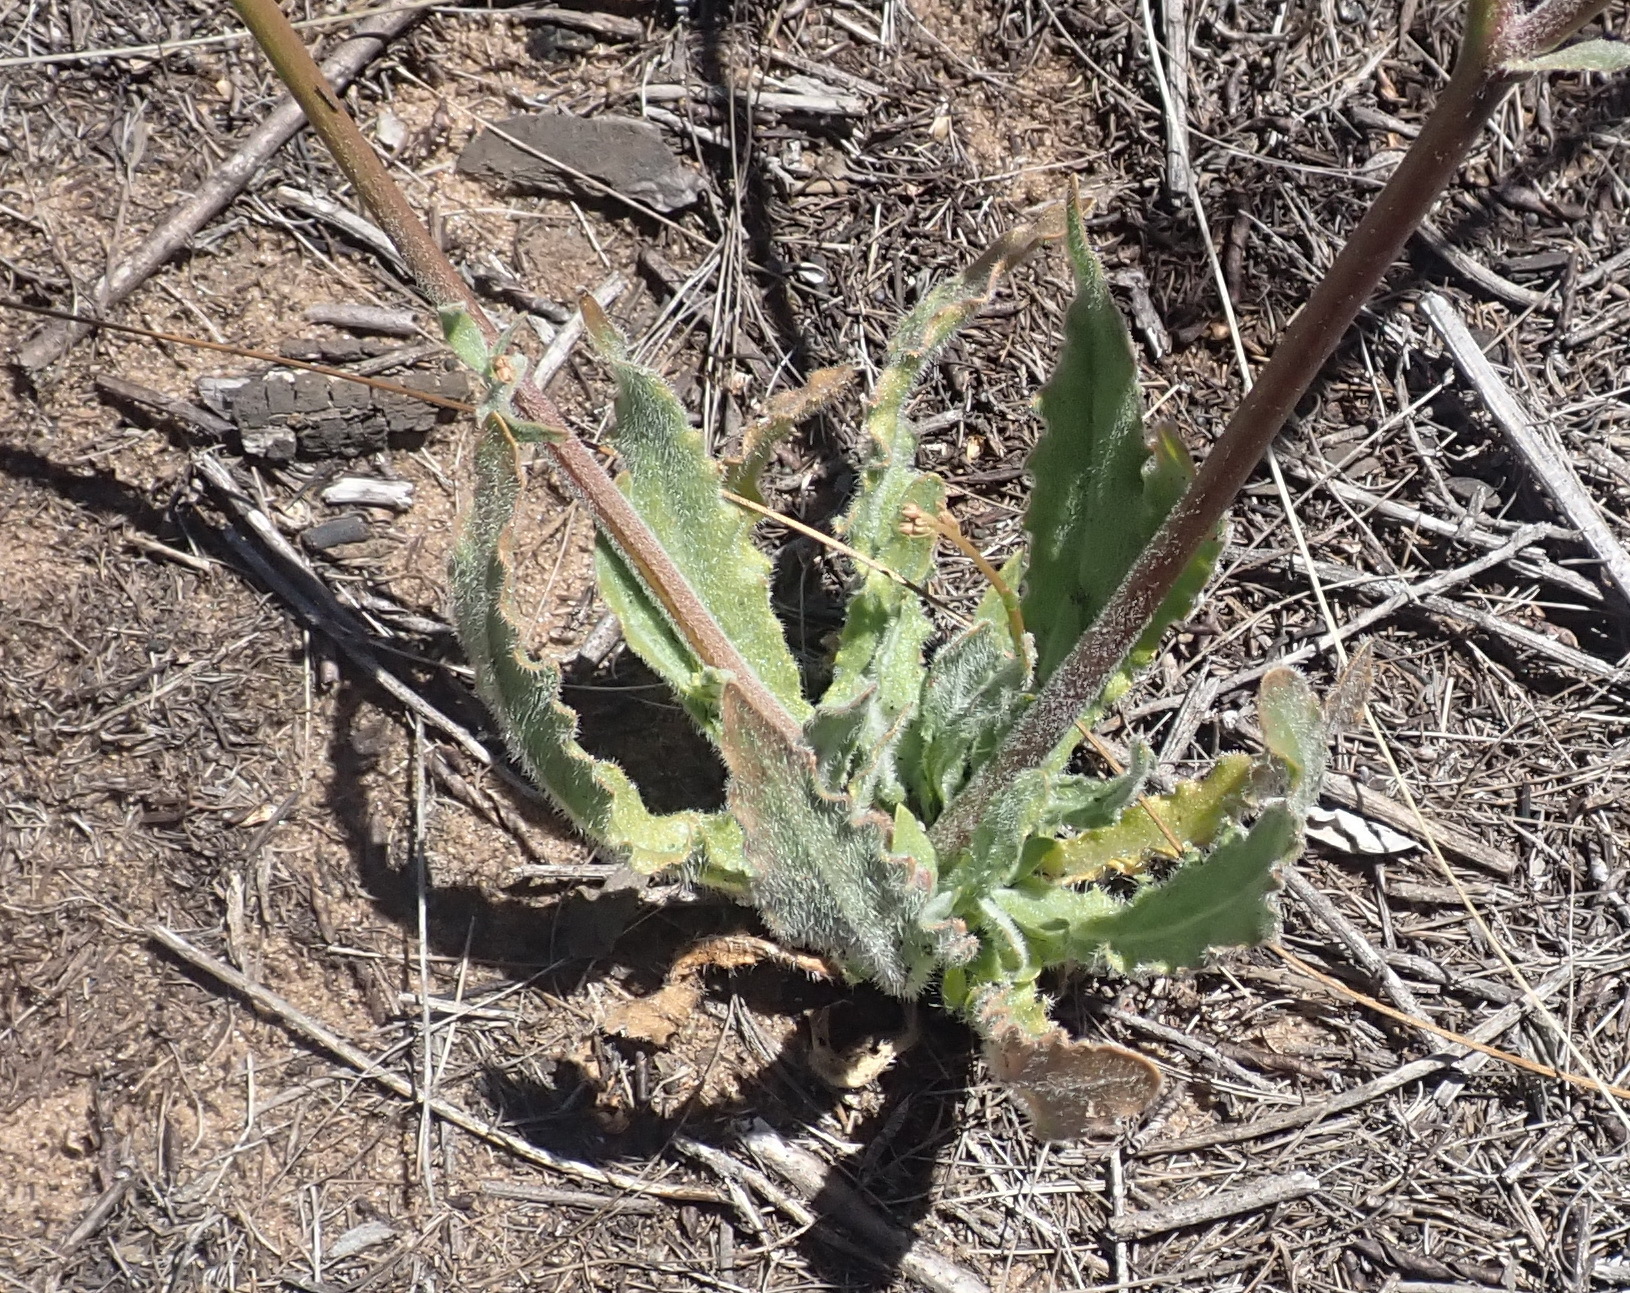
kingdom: Plantae
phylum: Tracheophyta
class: Magnoliopsida
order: Asterales
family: Campanulaceae
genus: Wahlenbergia
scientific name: Wahlenbergia androsacea
